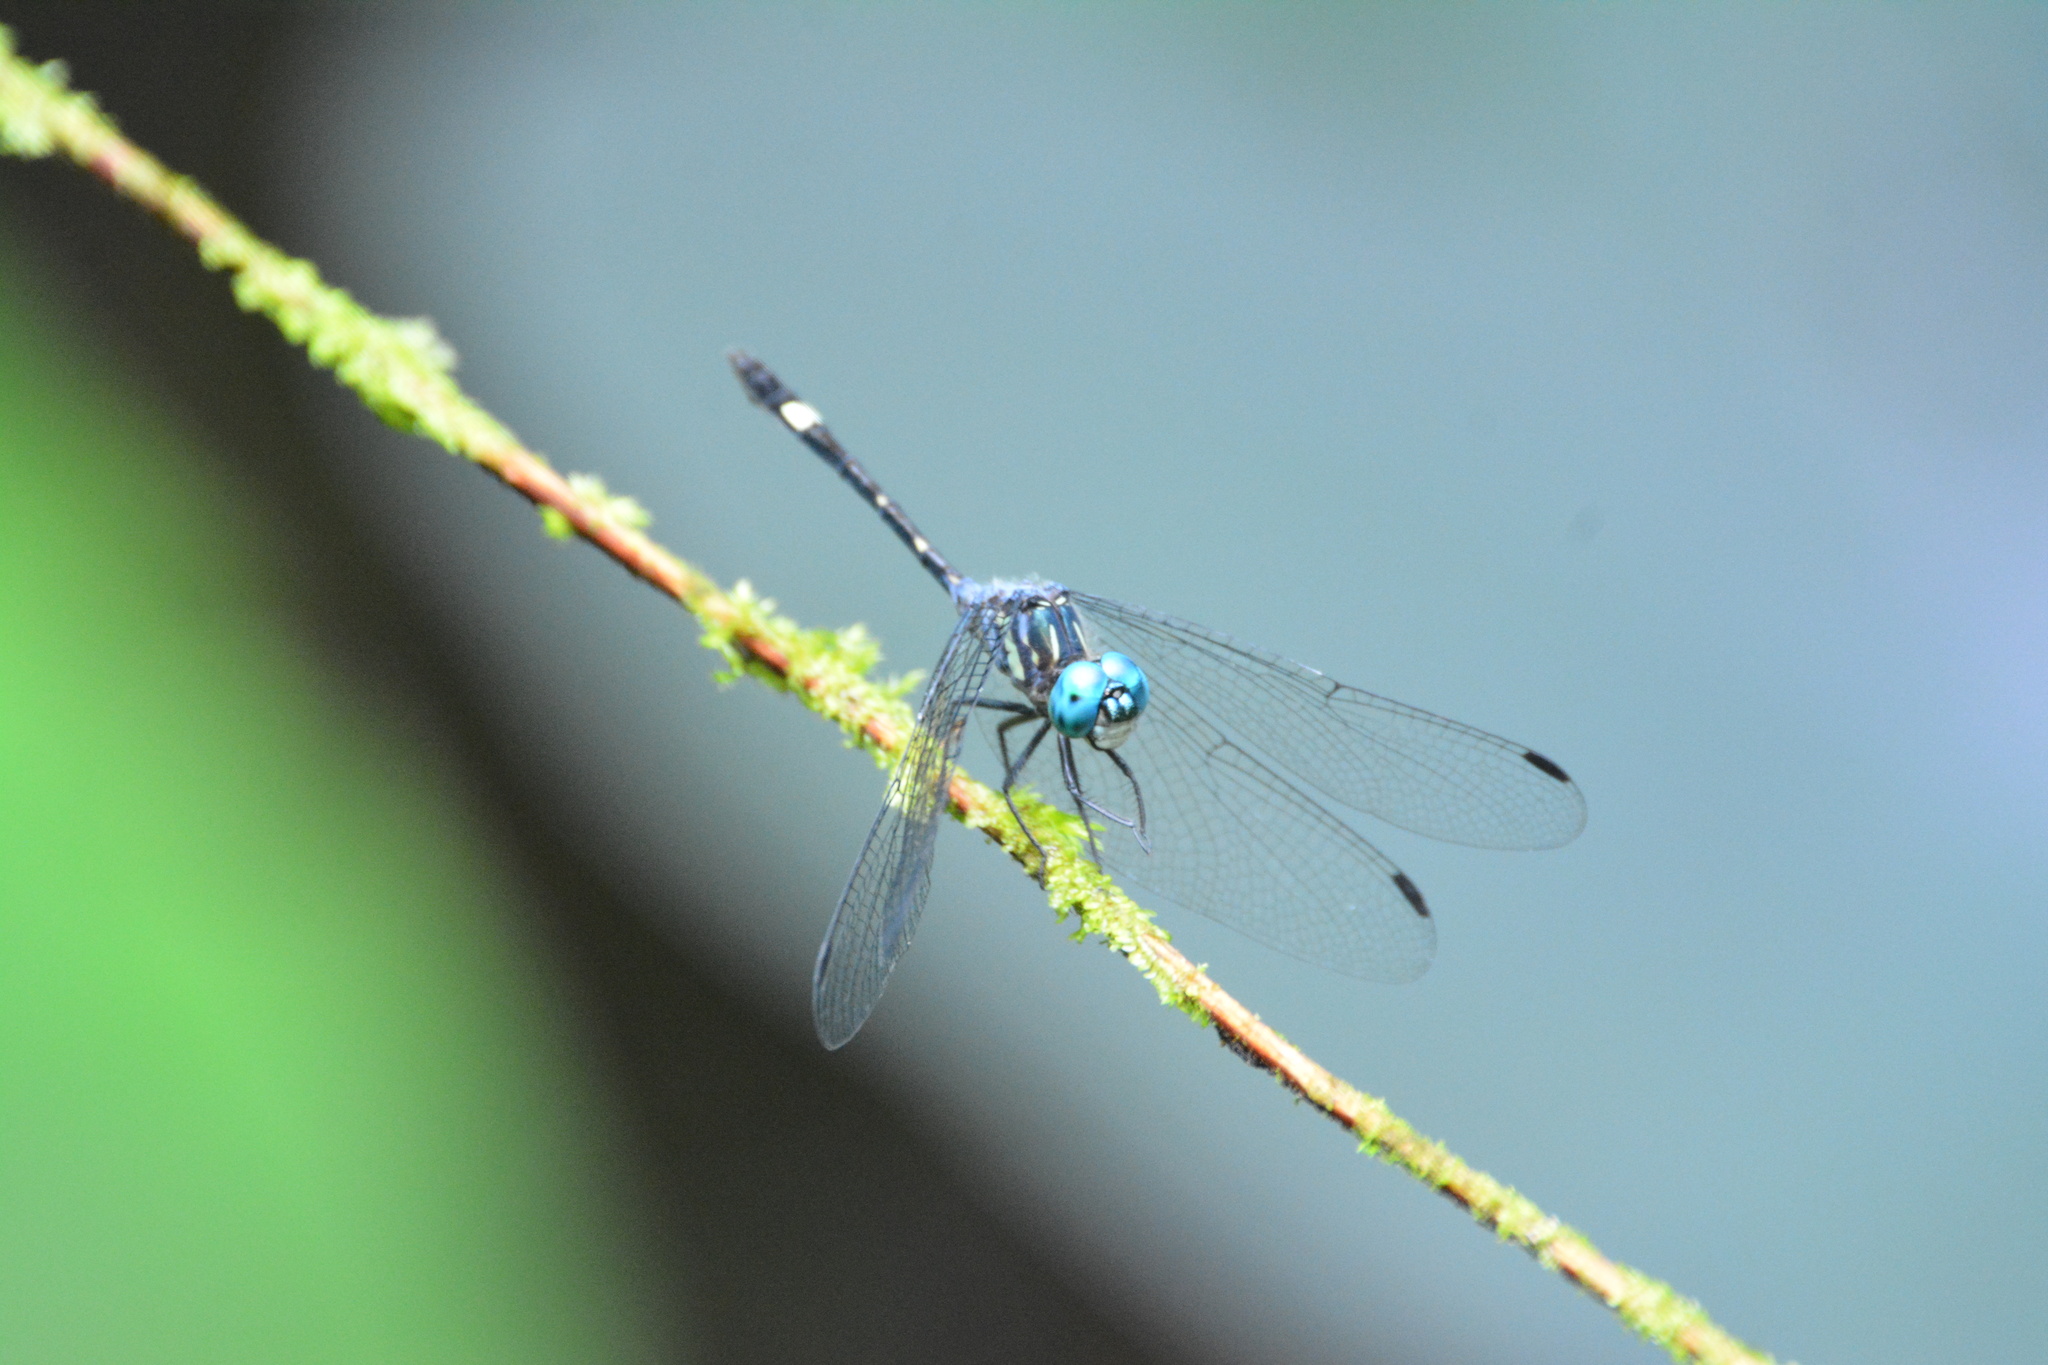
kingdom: Animalia
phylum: Arthropoda
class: Insecta
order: Odonata
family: Libellulidae
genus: Micrathyria
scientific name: Micrathyria ocellata
